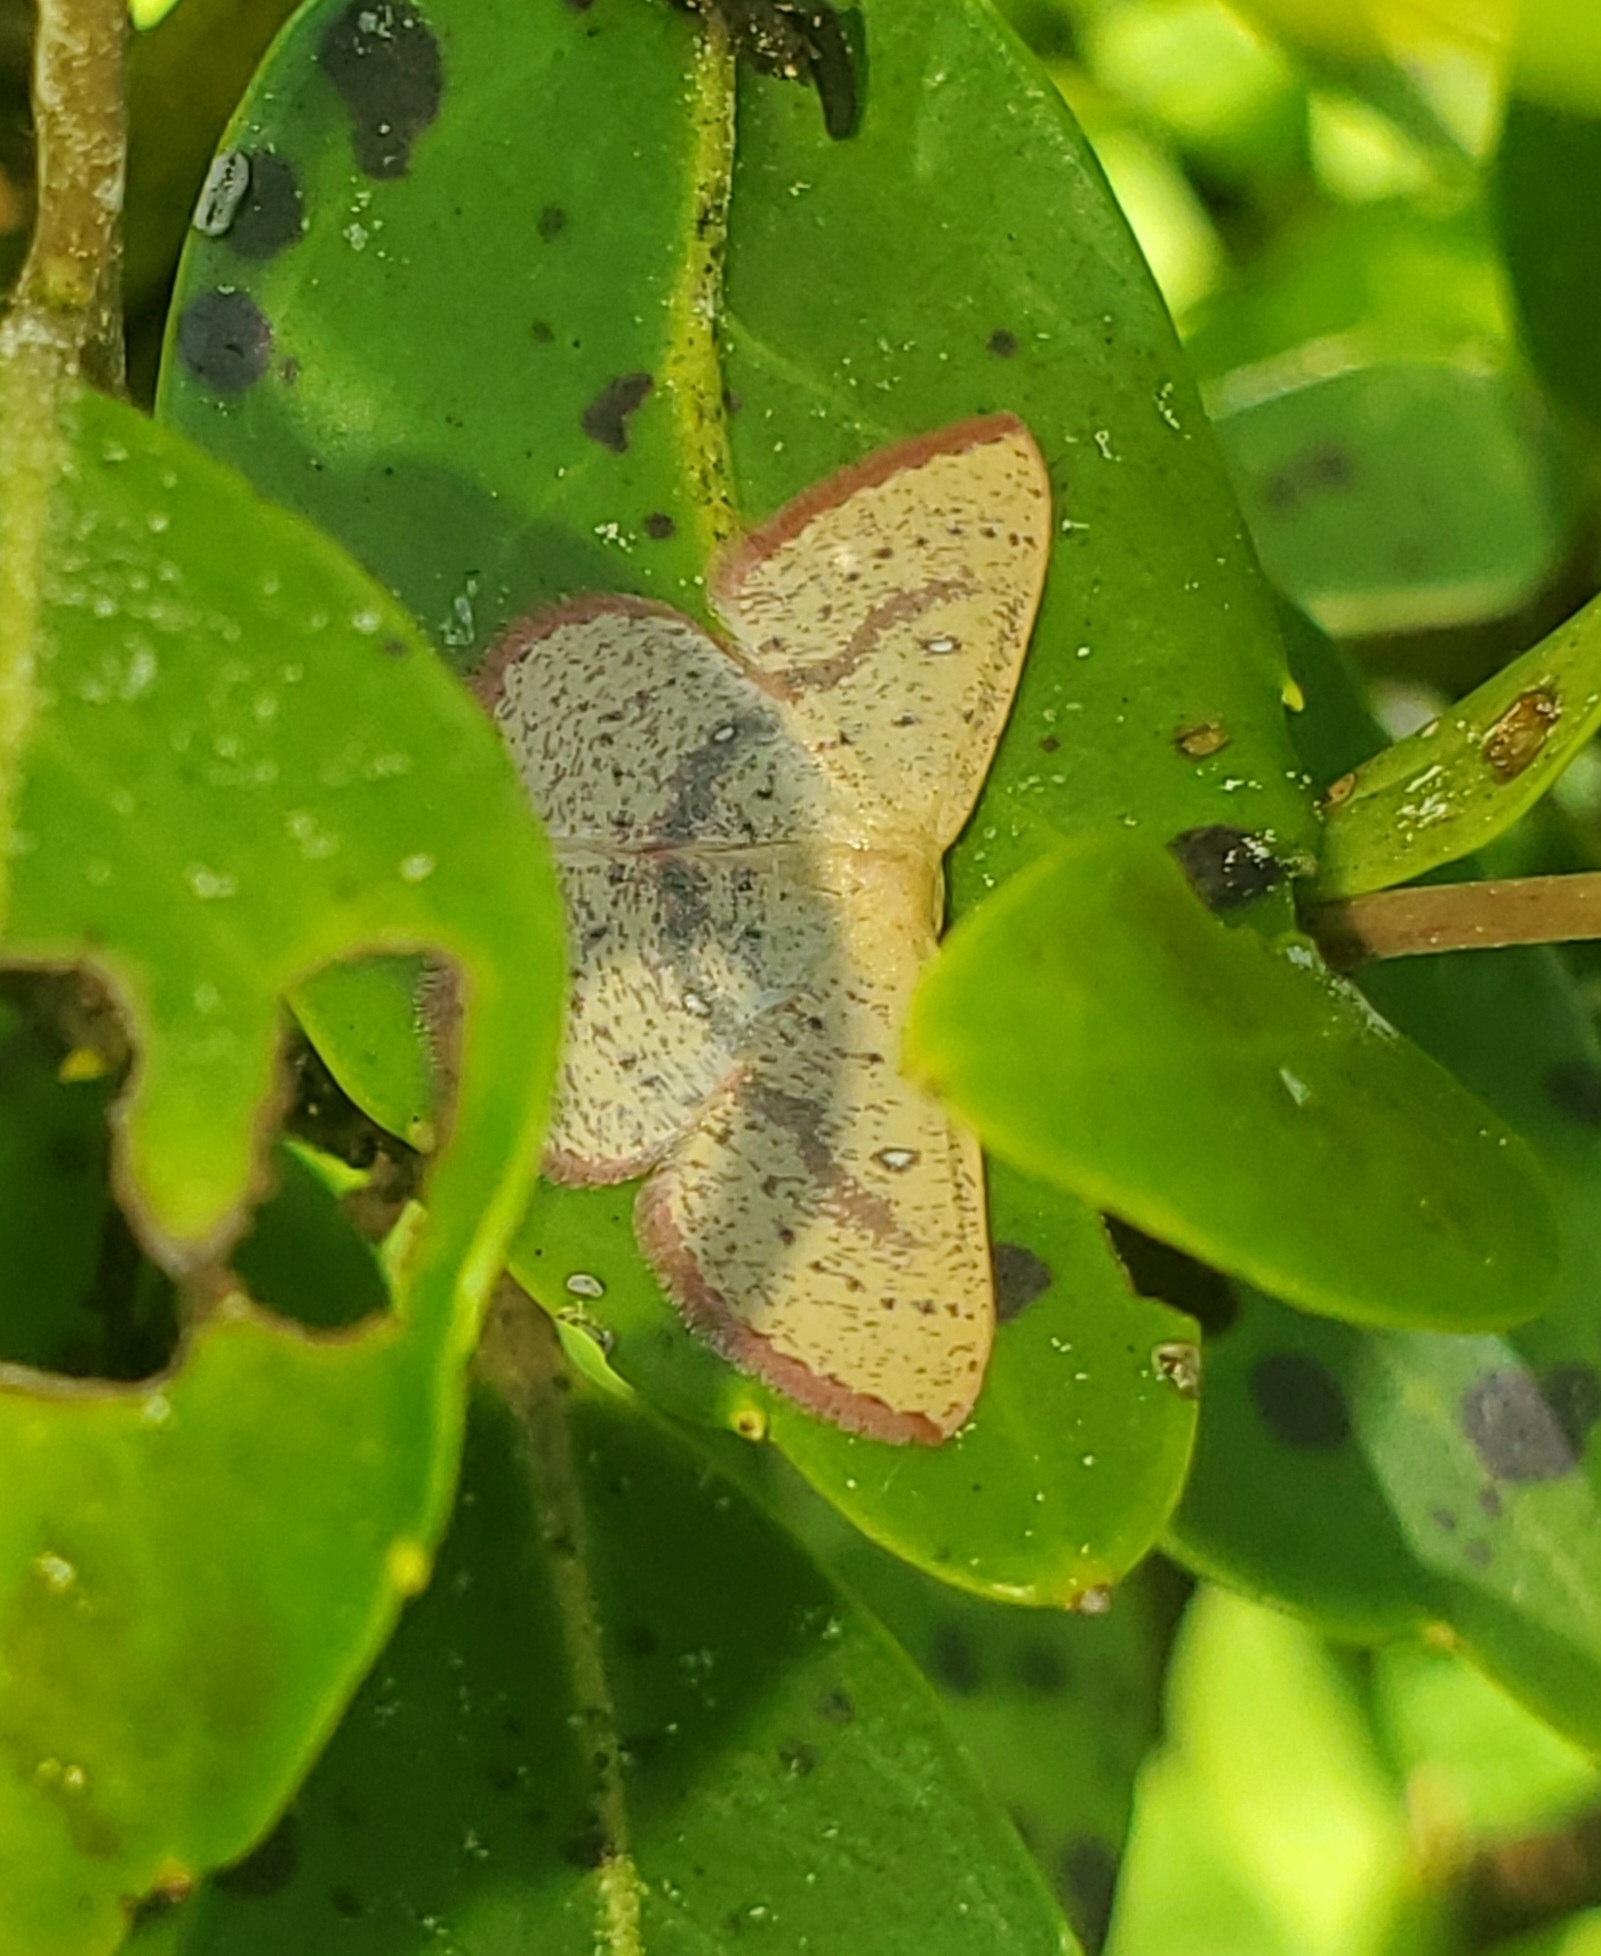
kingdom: Animalia
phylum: Arthropoda
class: Insecta
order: Lepidoptera
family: Geometridae
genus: Cyclophora
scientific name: Cyclophora culicaria
